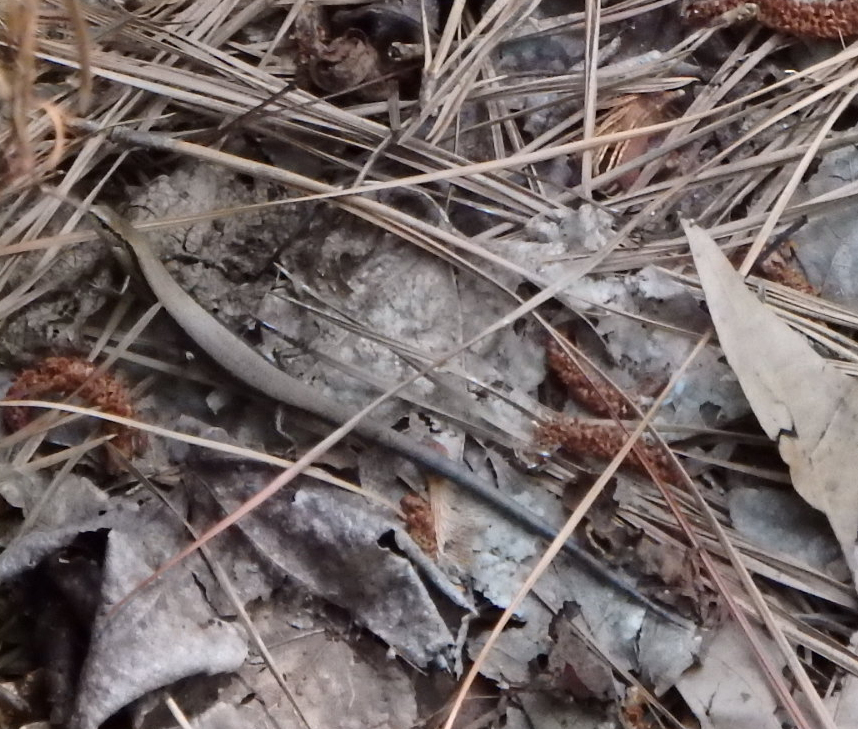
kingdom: Animalia
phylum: Chordata
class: Squamata
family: Scincidae
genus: Scincella
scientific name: Scincella lateralis
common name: Ground skink
